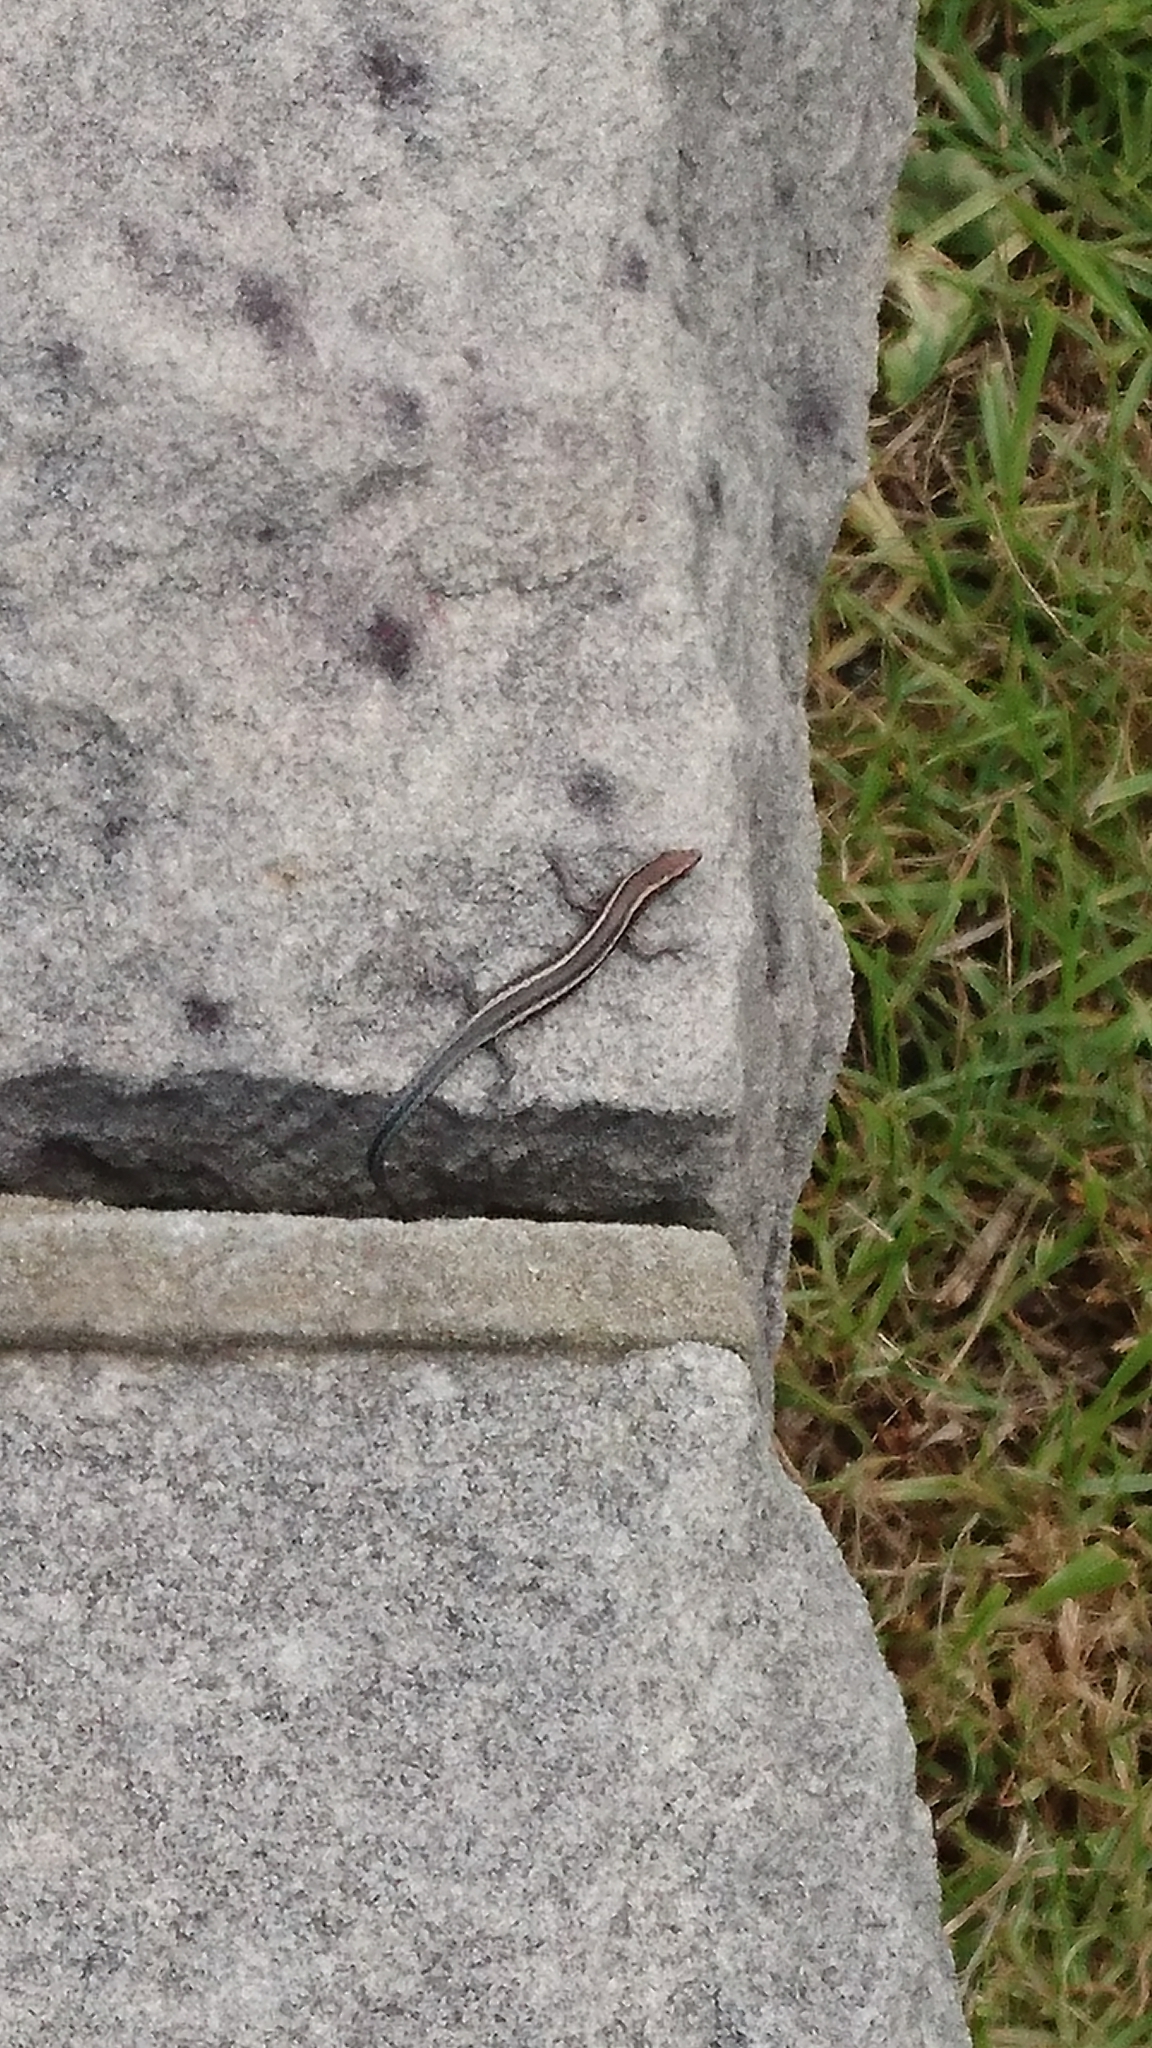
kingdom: Animalia
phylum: Chordata
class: Squamata
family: Scincidae
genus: Cryptoblepharus
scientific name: Cryptoblepharus pulcher
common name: Elegant snake-eyed skink
